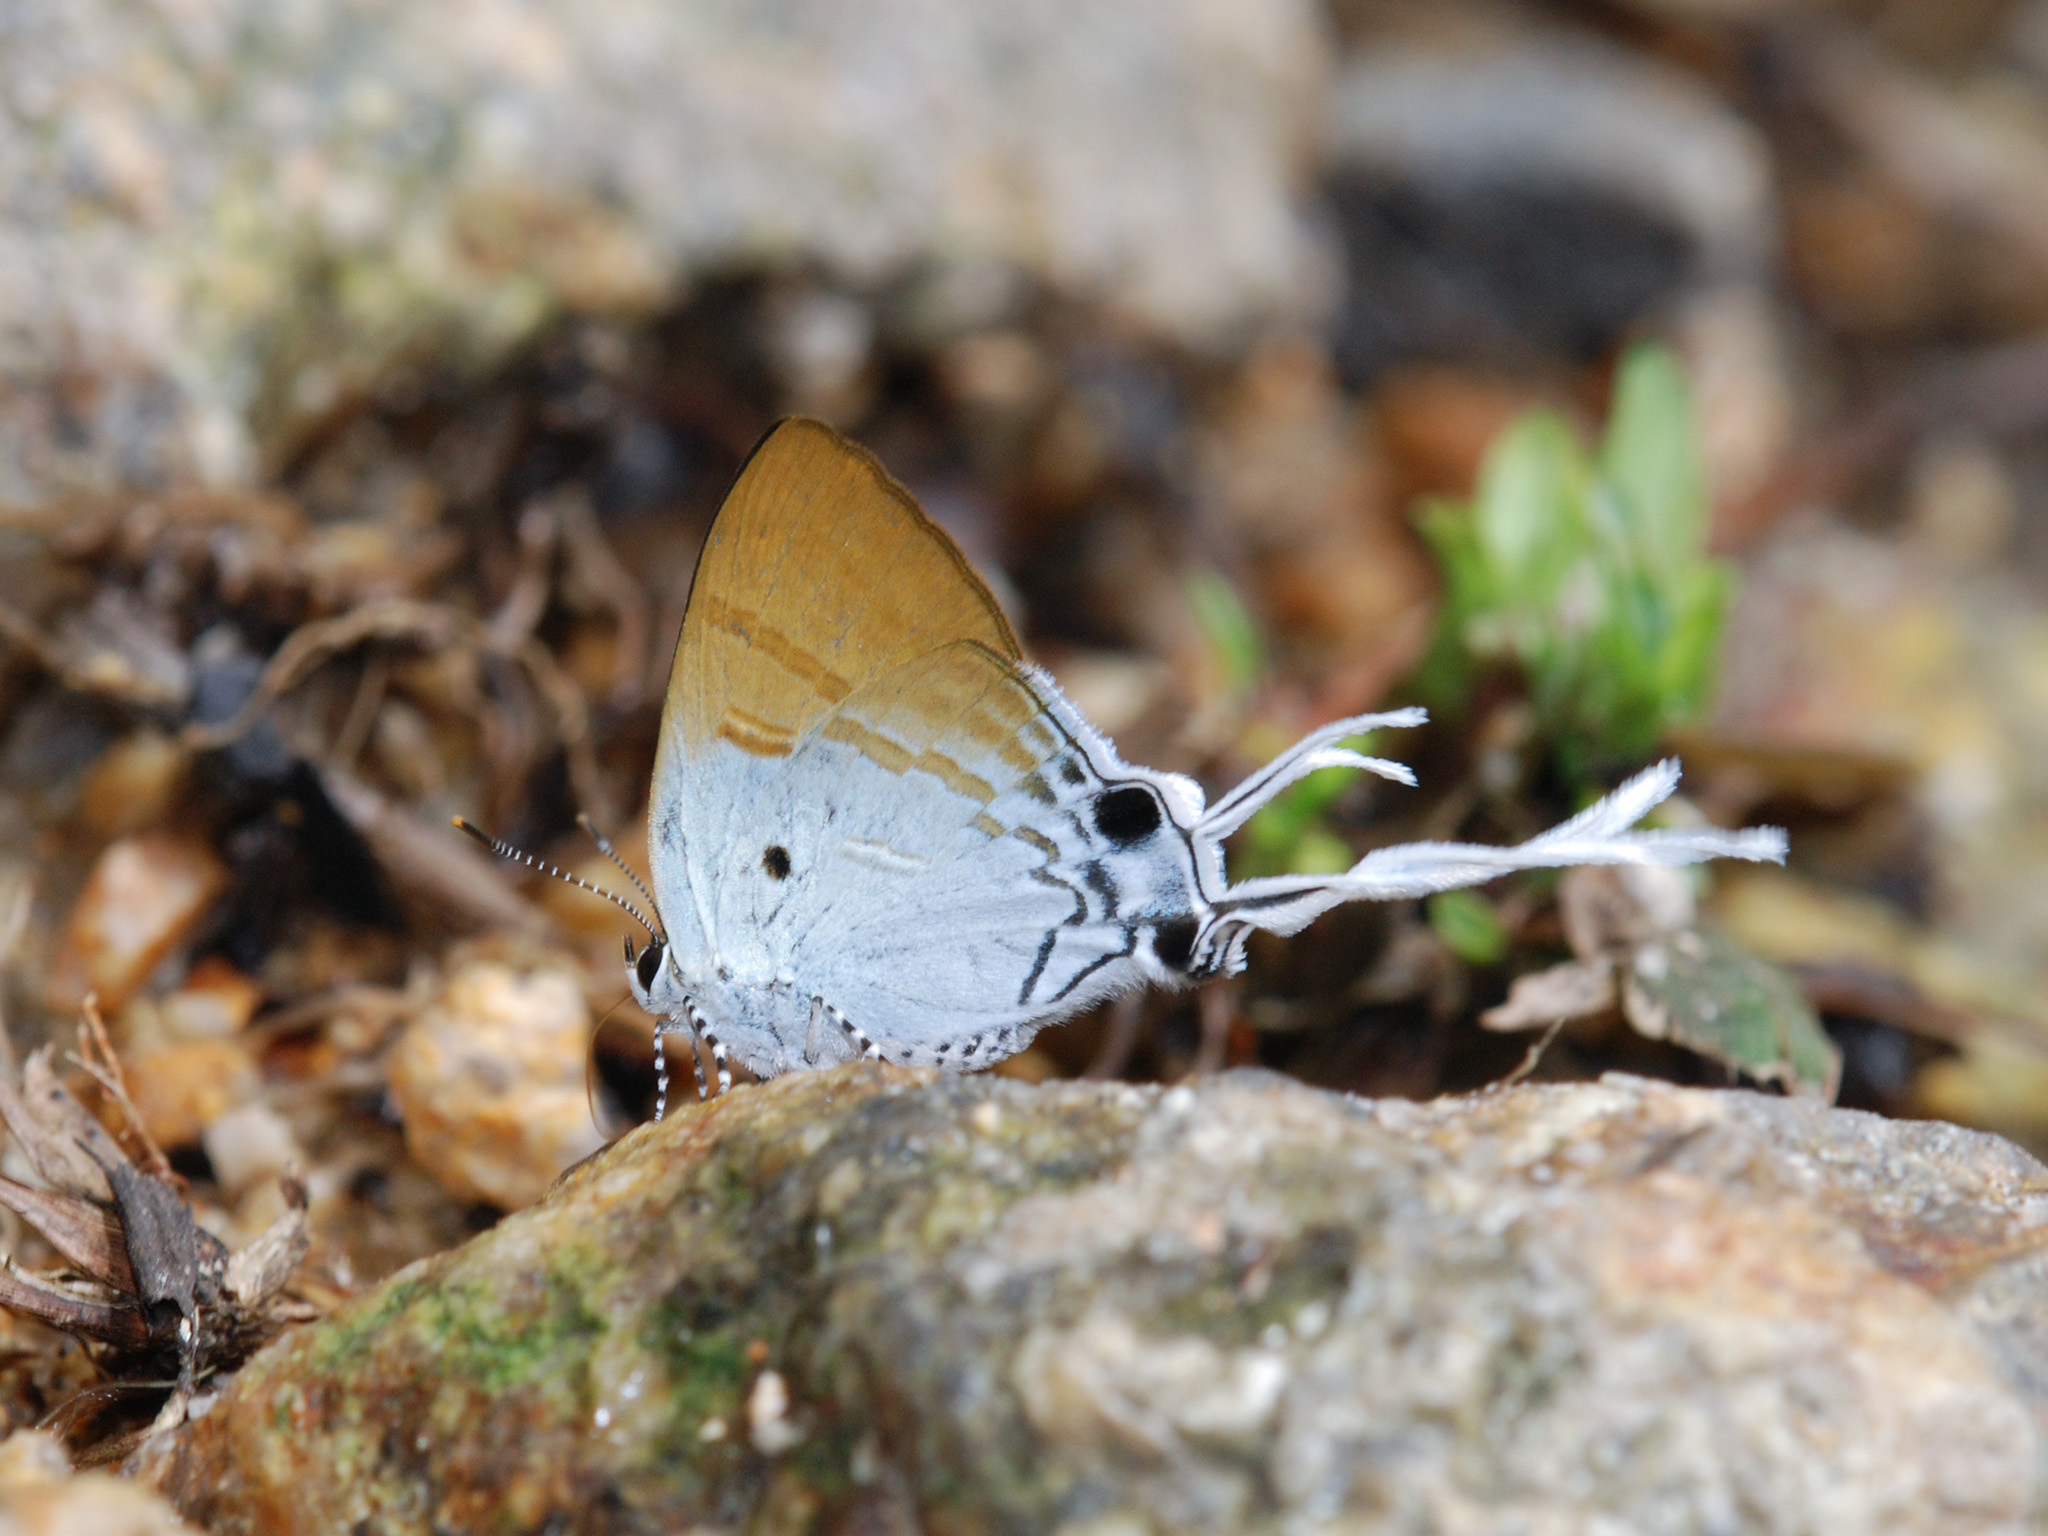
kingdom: Animalia
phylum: Arthropoda
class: Insecta
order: Lepidoptera
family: Lycaenidae
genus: Zeltus
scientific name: Zeltus amasa
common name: Fluffy tit
